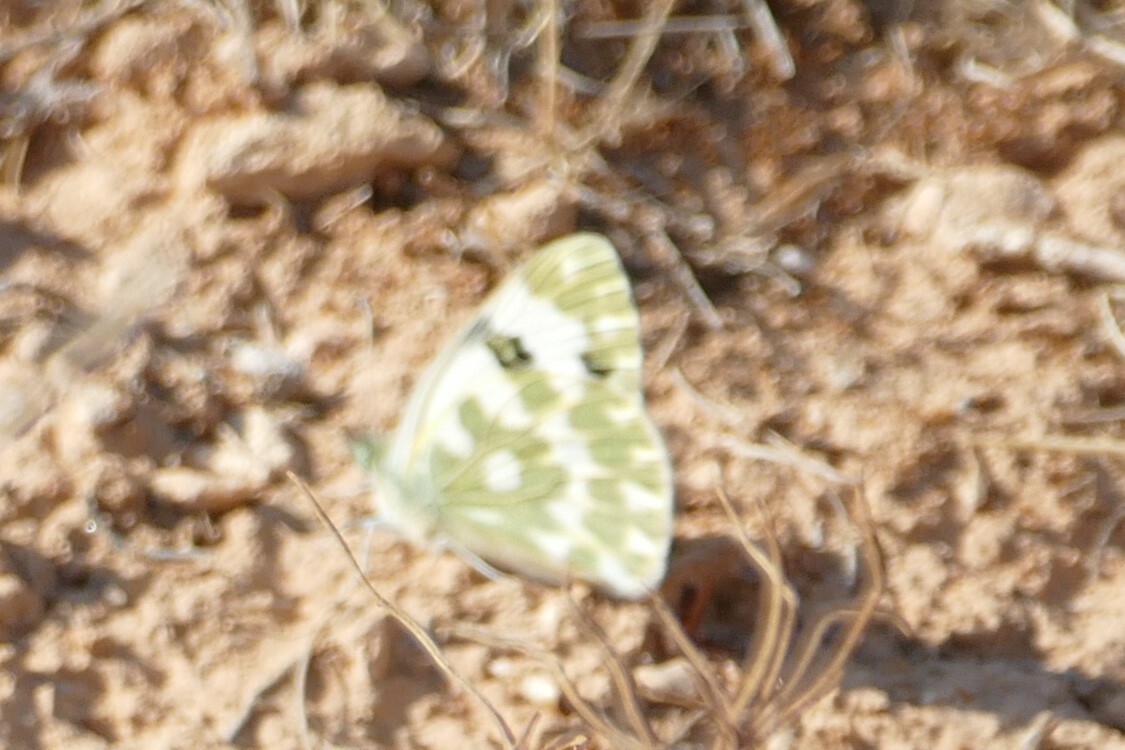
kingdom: Animalia
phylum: Arthropoda
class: Insecta
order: Lepidoptera
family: Pieridae
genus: Pontia
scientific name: Pontia daplidice
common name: Bath white
